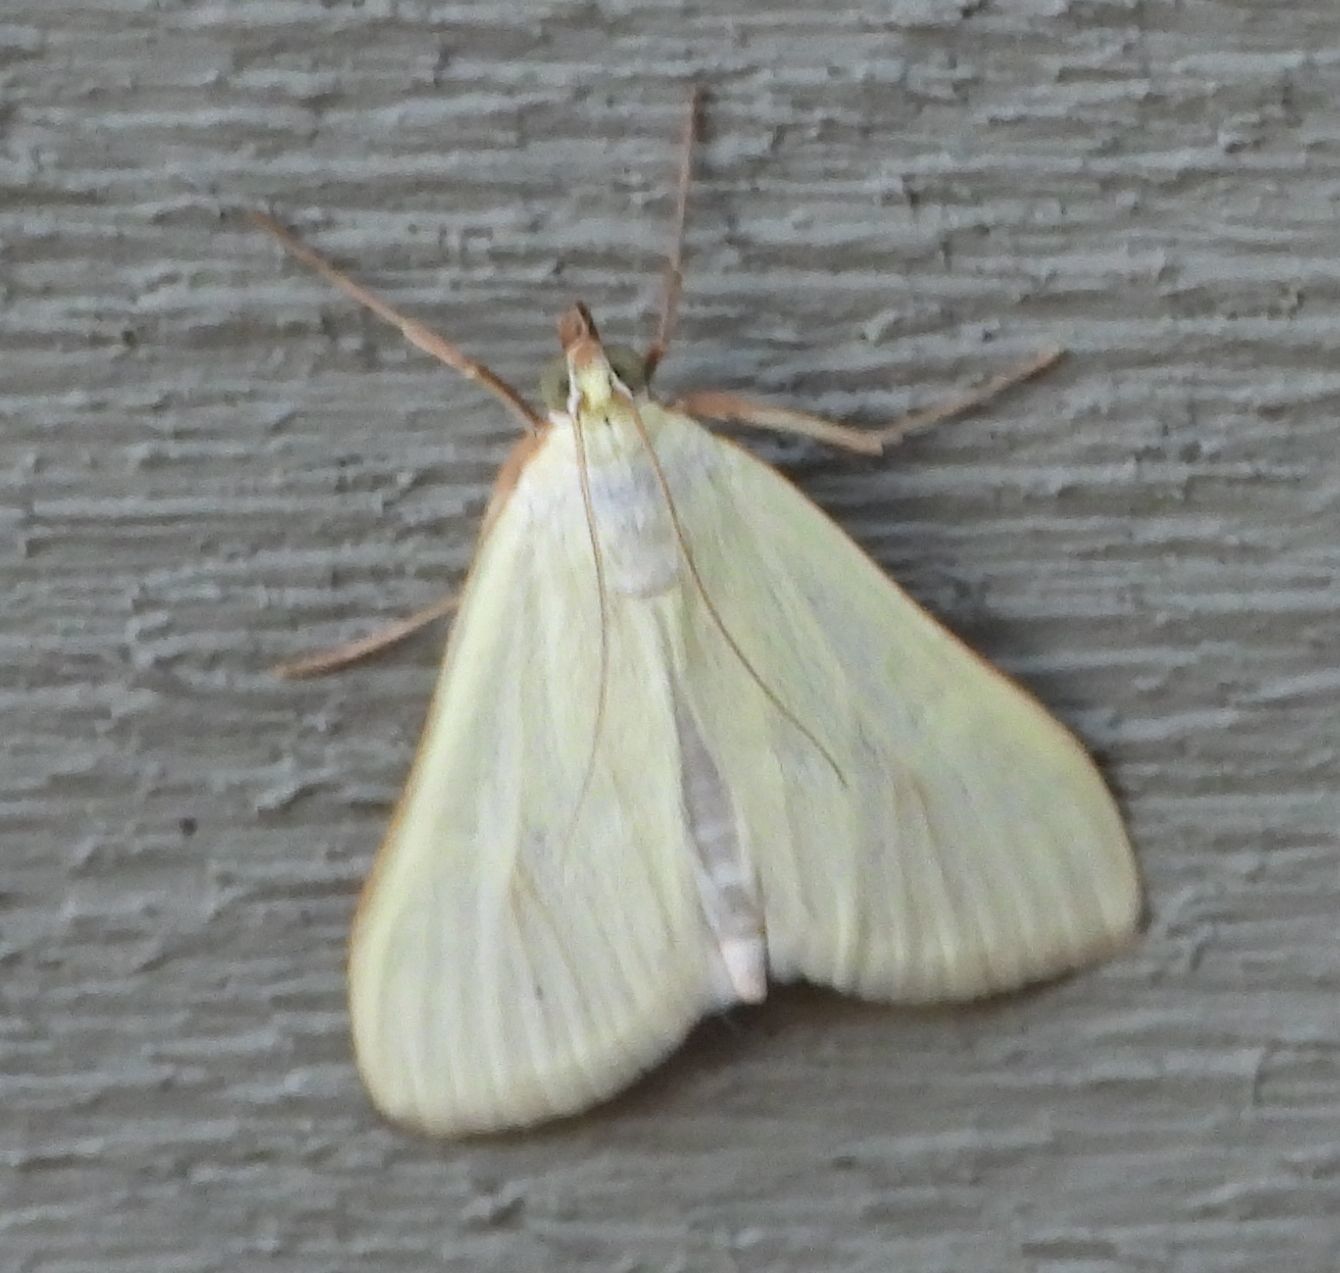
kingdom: Animalia
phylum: Arthropoda
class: Insecta
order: Lepidoptera
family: Crambidae
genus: Sitochroa
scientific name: Sitochroa palealis
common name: Greenish-yellow sitochroa moth
